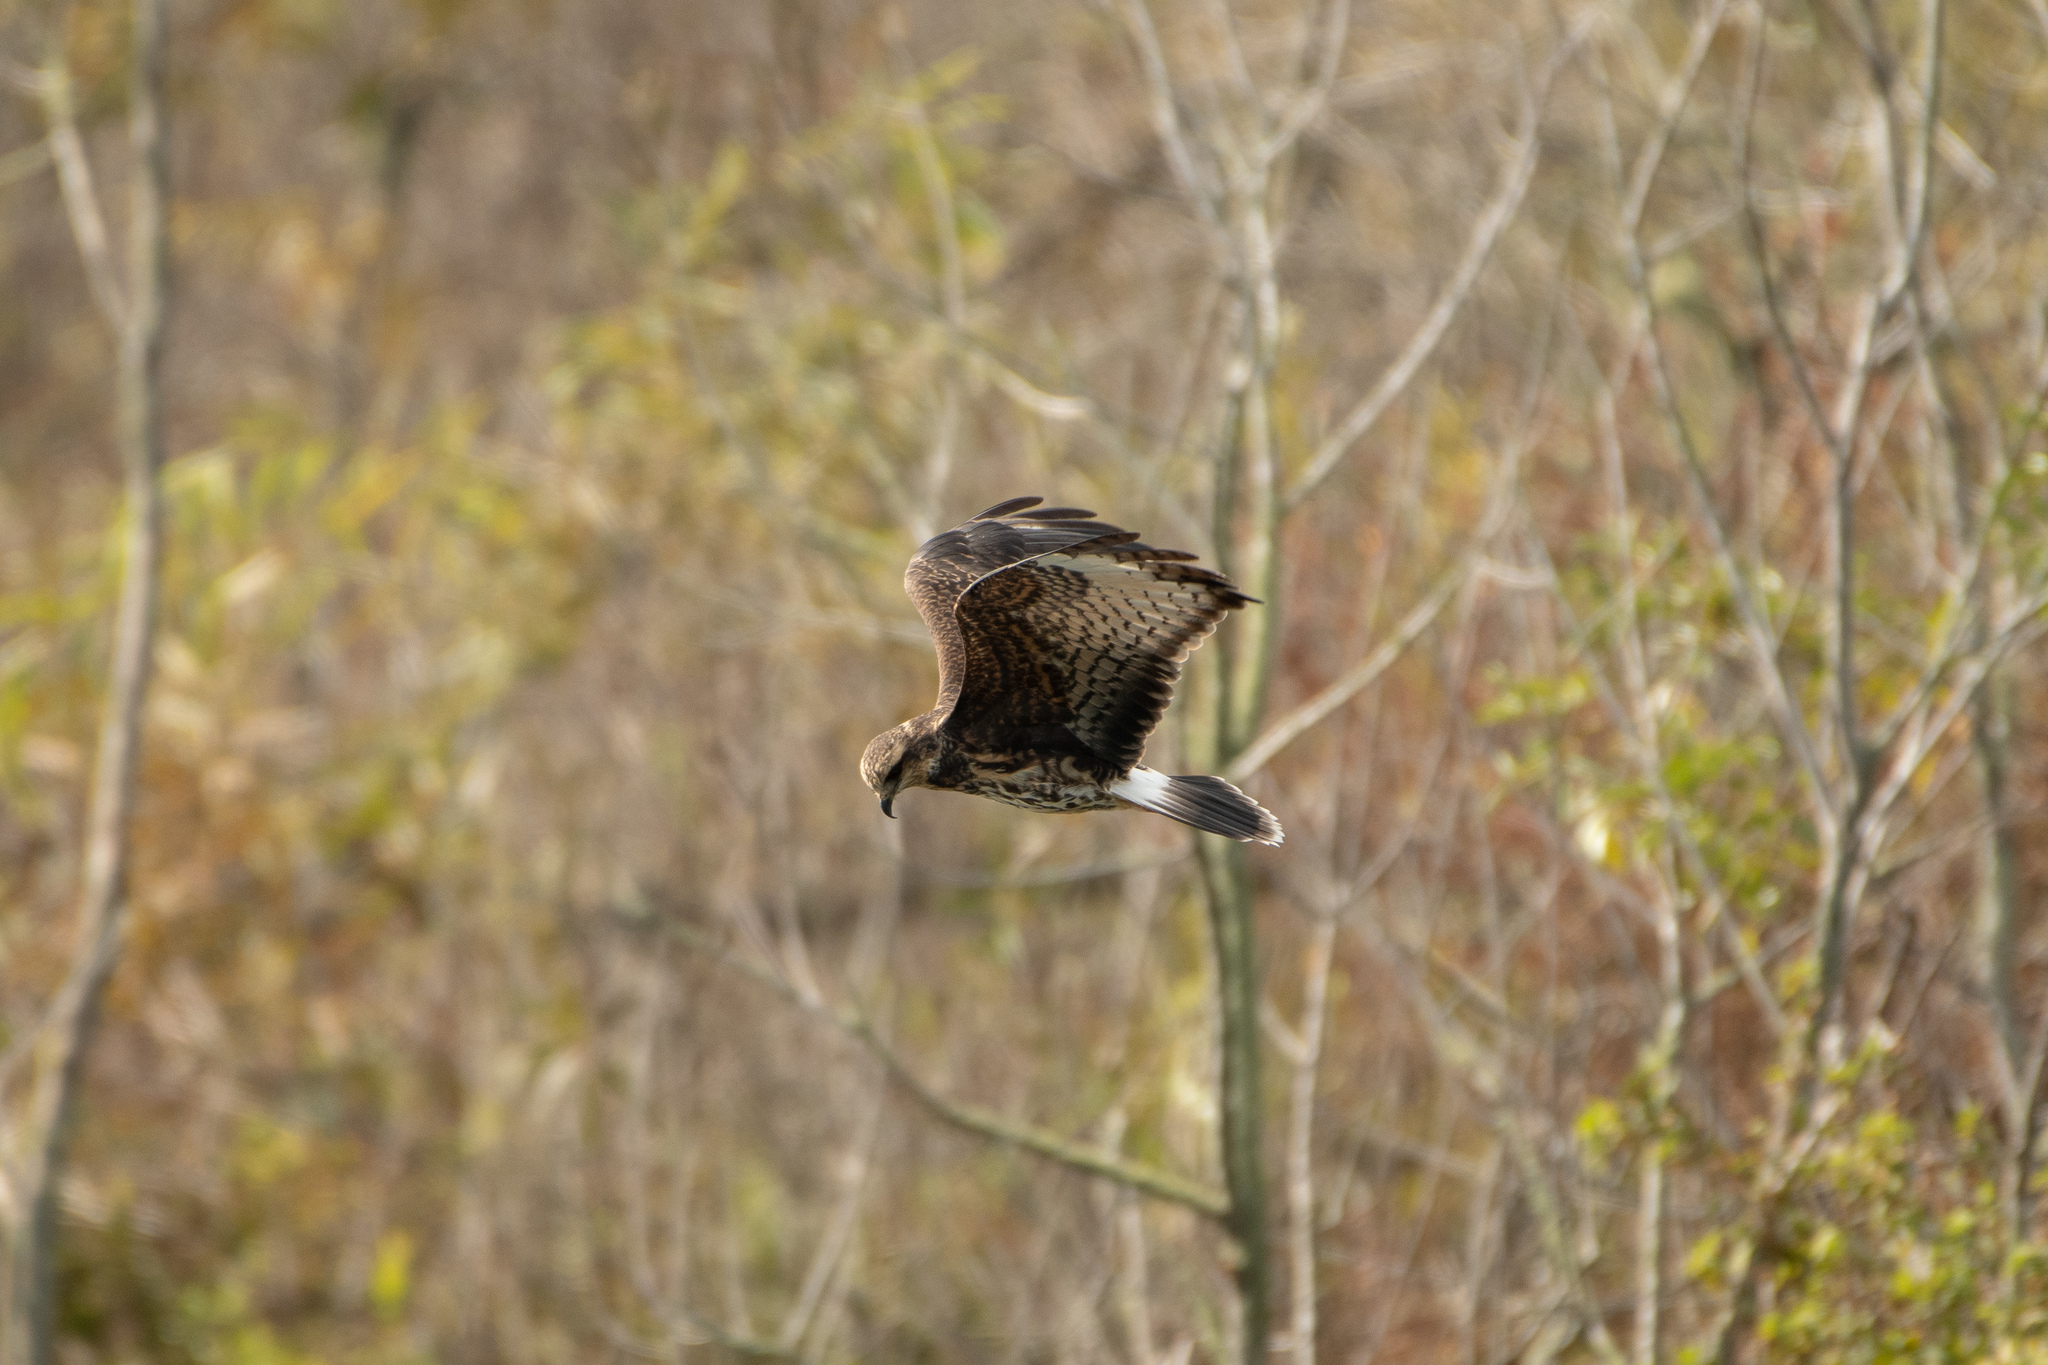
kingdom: Animalia
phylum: Chordata
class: Aves
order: Accipitriformes
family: Accipitridae
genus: Rostrhamus
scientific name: Rostrhamus sociabilis
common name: Snail kite
